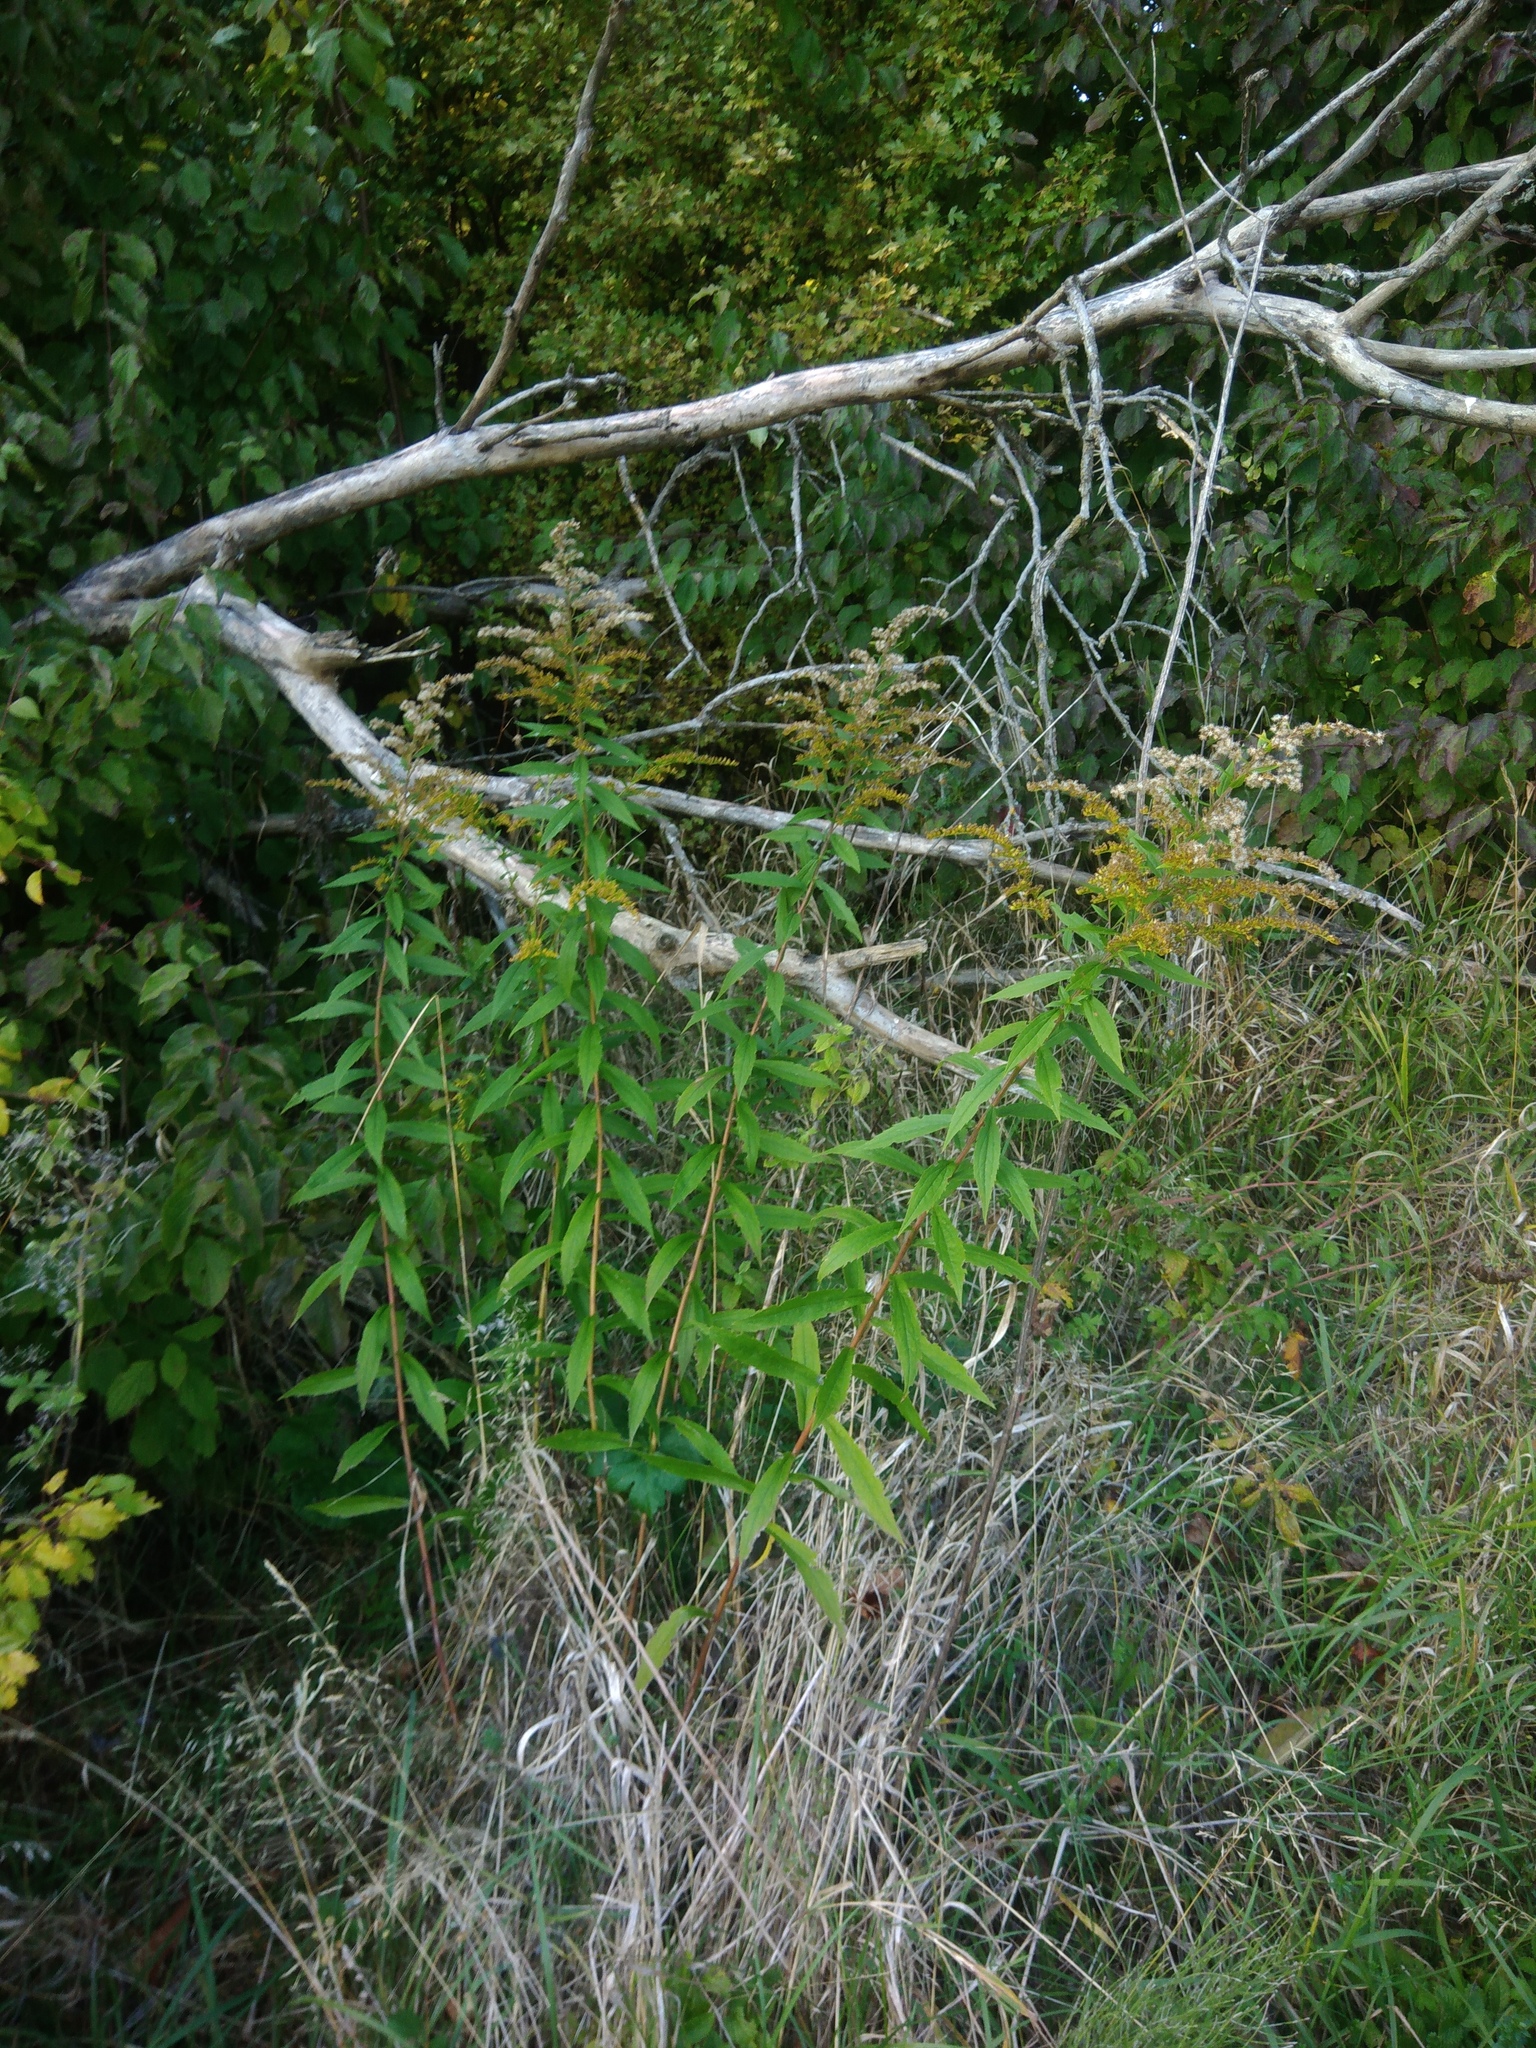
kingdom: Plantae
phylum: Tracheophyta
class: Magnoliopsida
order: Asterales
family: Asteraceae
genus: Solidago
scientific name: Solidago canadensis
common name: Canada goldenrod
